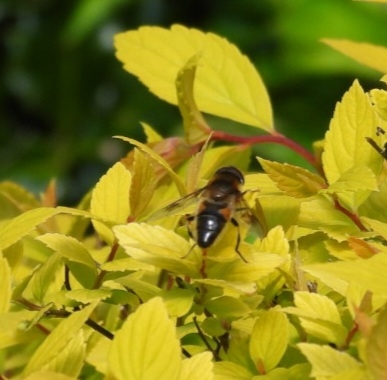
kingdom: Animalia
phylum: Arthropoda
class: Insecta
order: Diptera
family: Syrphidae
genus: Eristalis
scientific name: Eristalis pertinax
